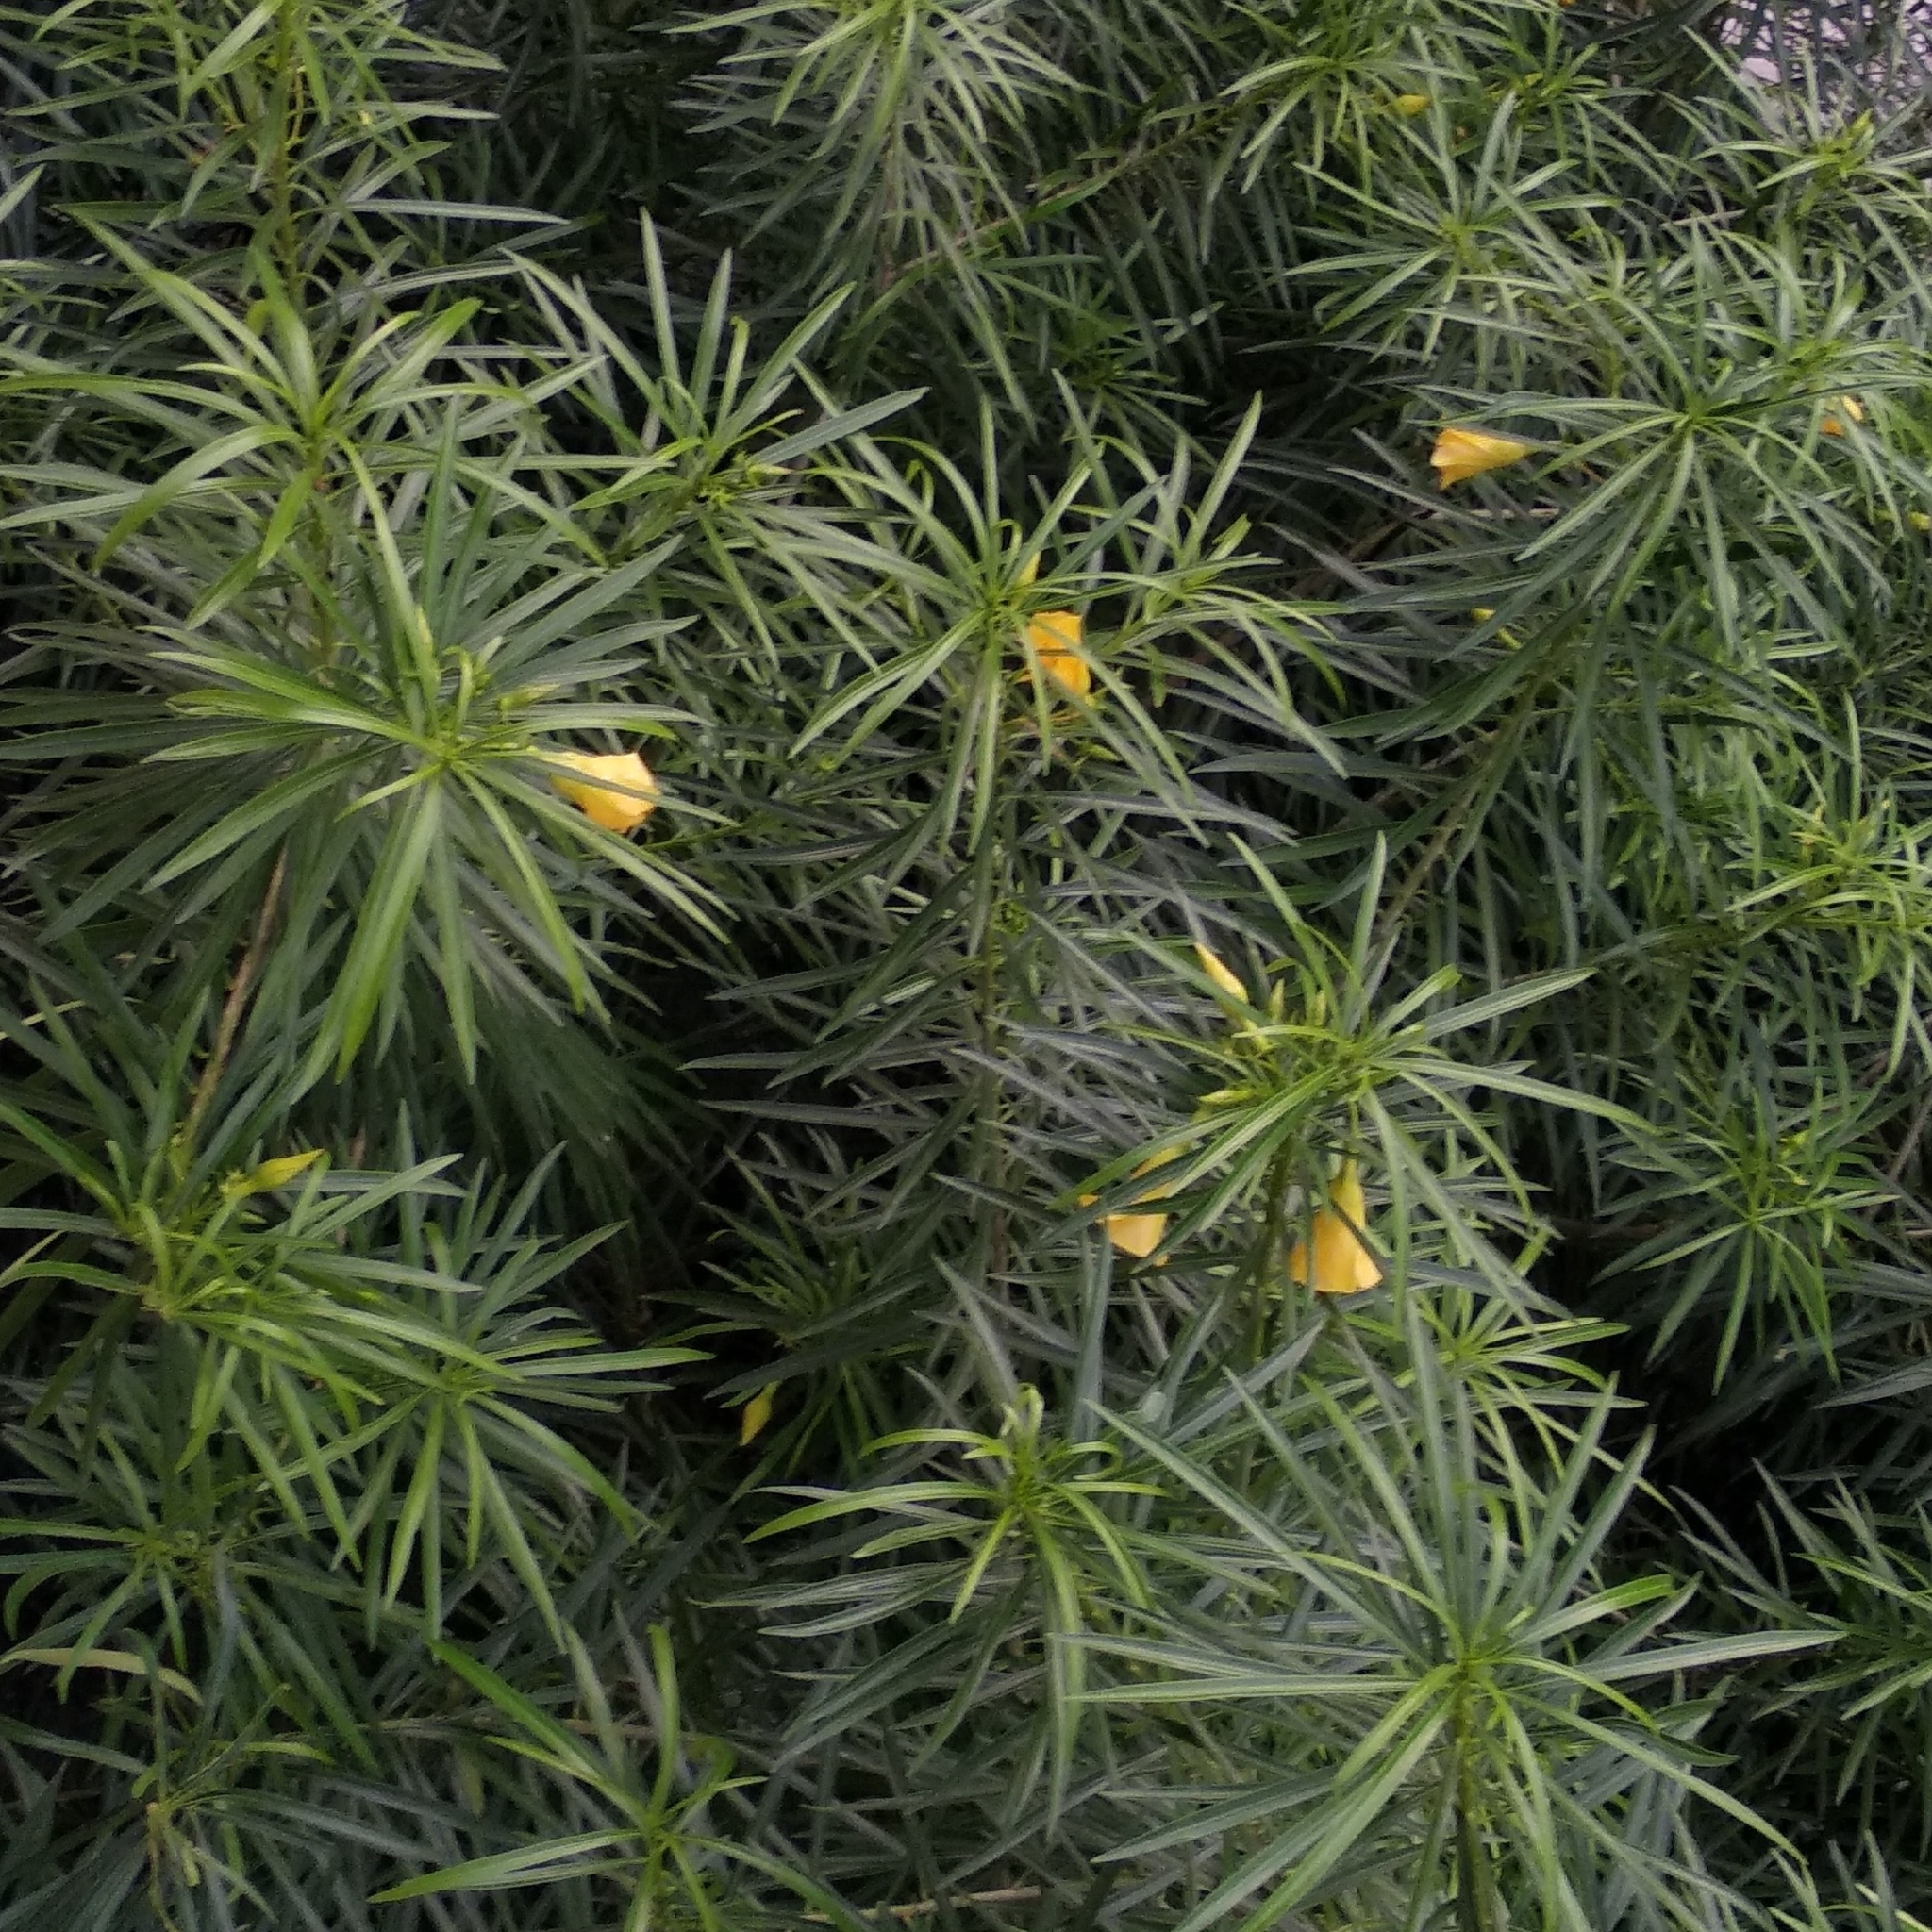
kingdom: Plantae
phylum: Tracheophyta
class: Magnoliopsida
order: Gentianales
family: Apocynaceae
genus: Cascabela
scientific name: Cascabela thevetia
